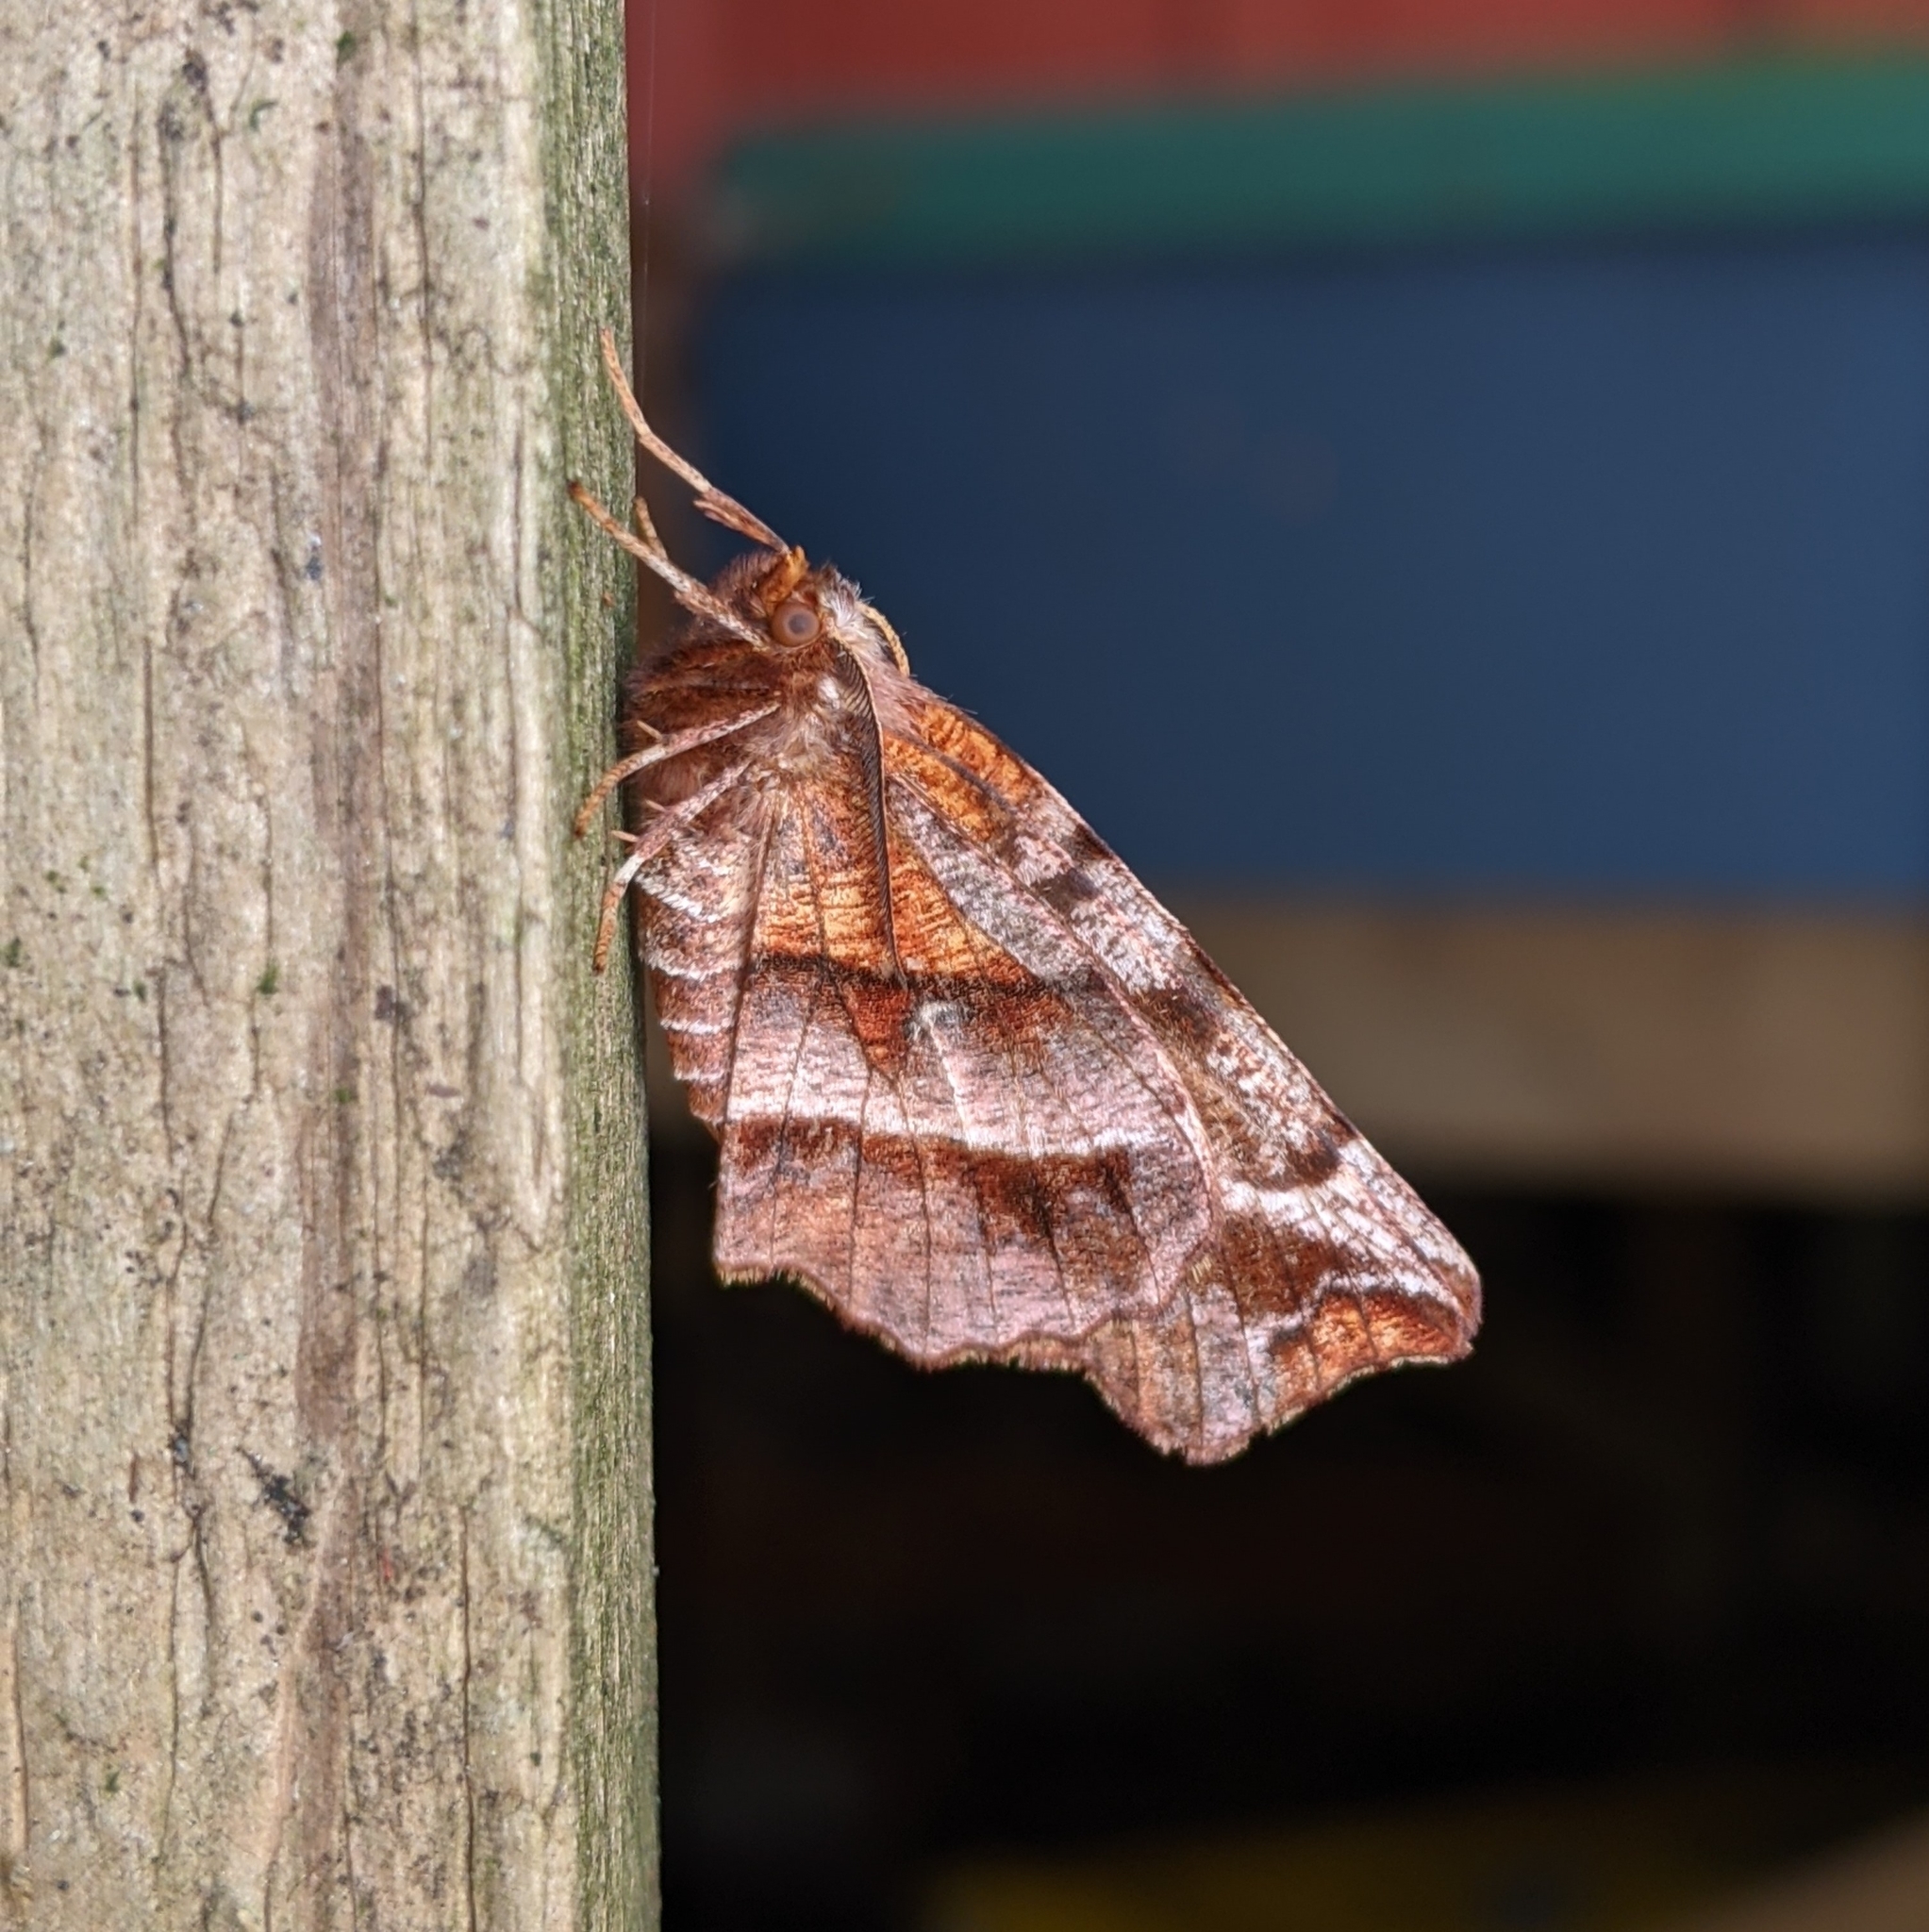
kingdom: Animalia
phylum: Arthropoda
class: Insecta
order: Lepidoptera
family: Geometridae
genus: Selenia
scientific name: Selenia alciphearia
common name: Brown-tipped thorn
